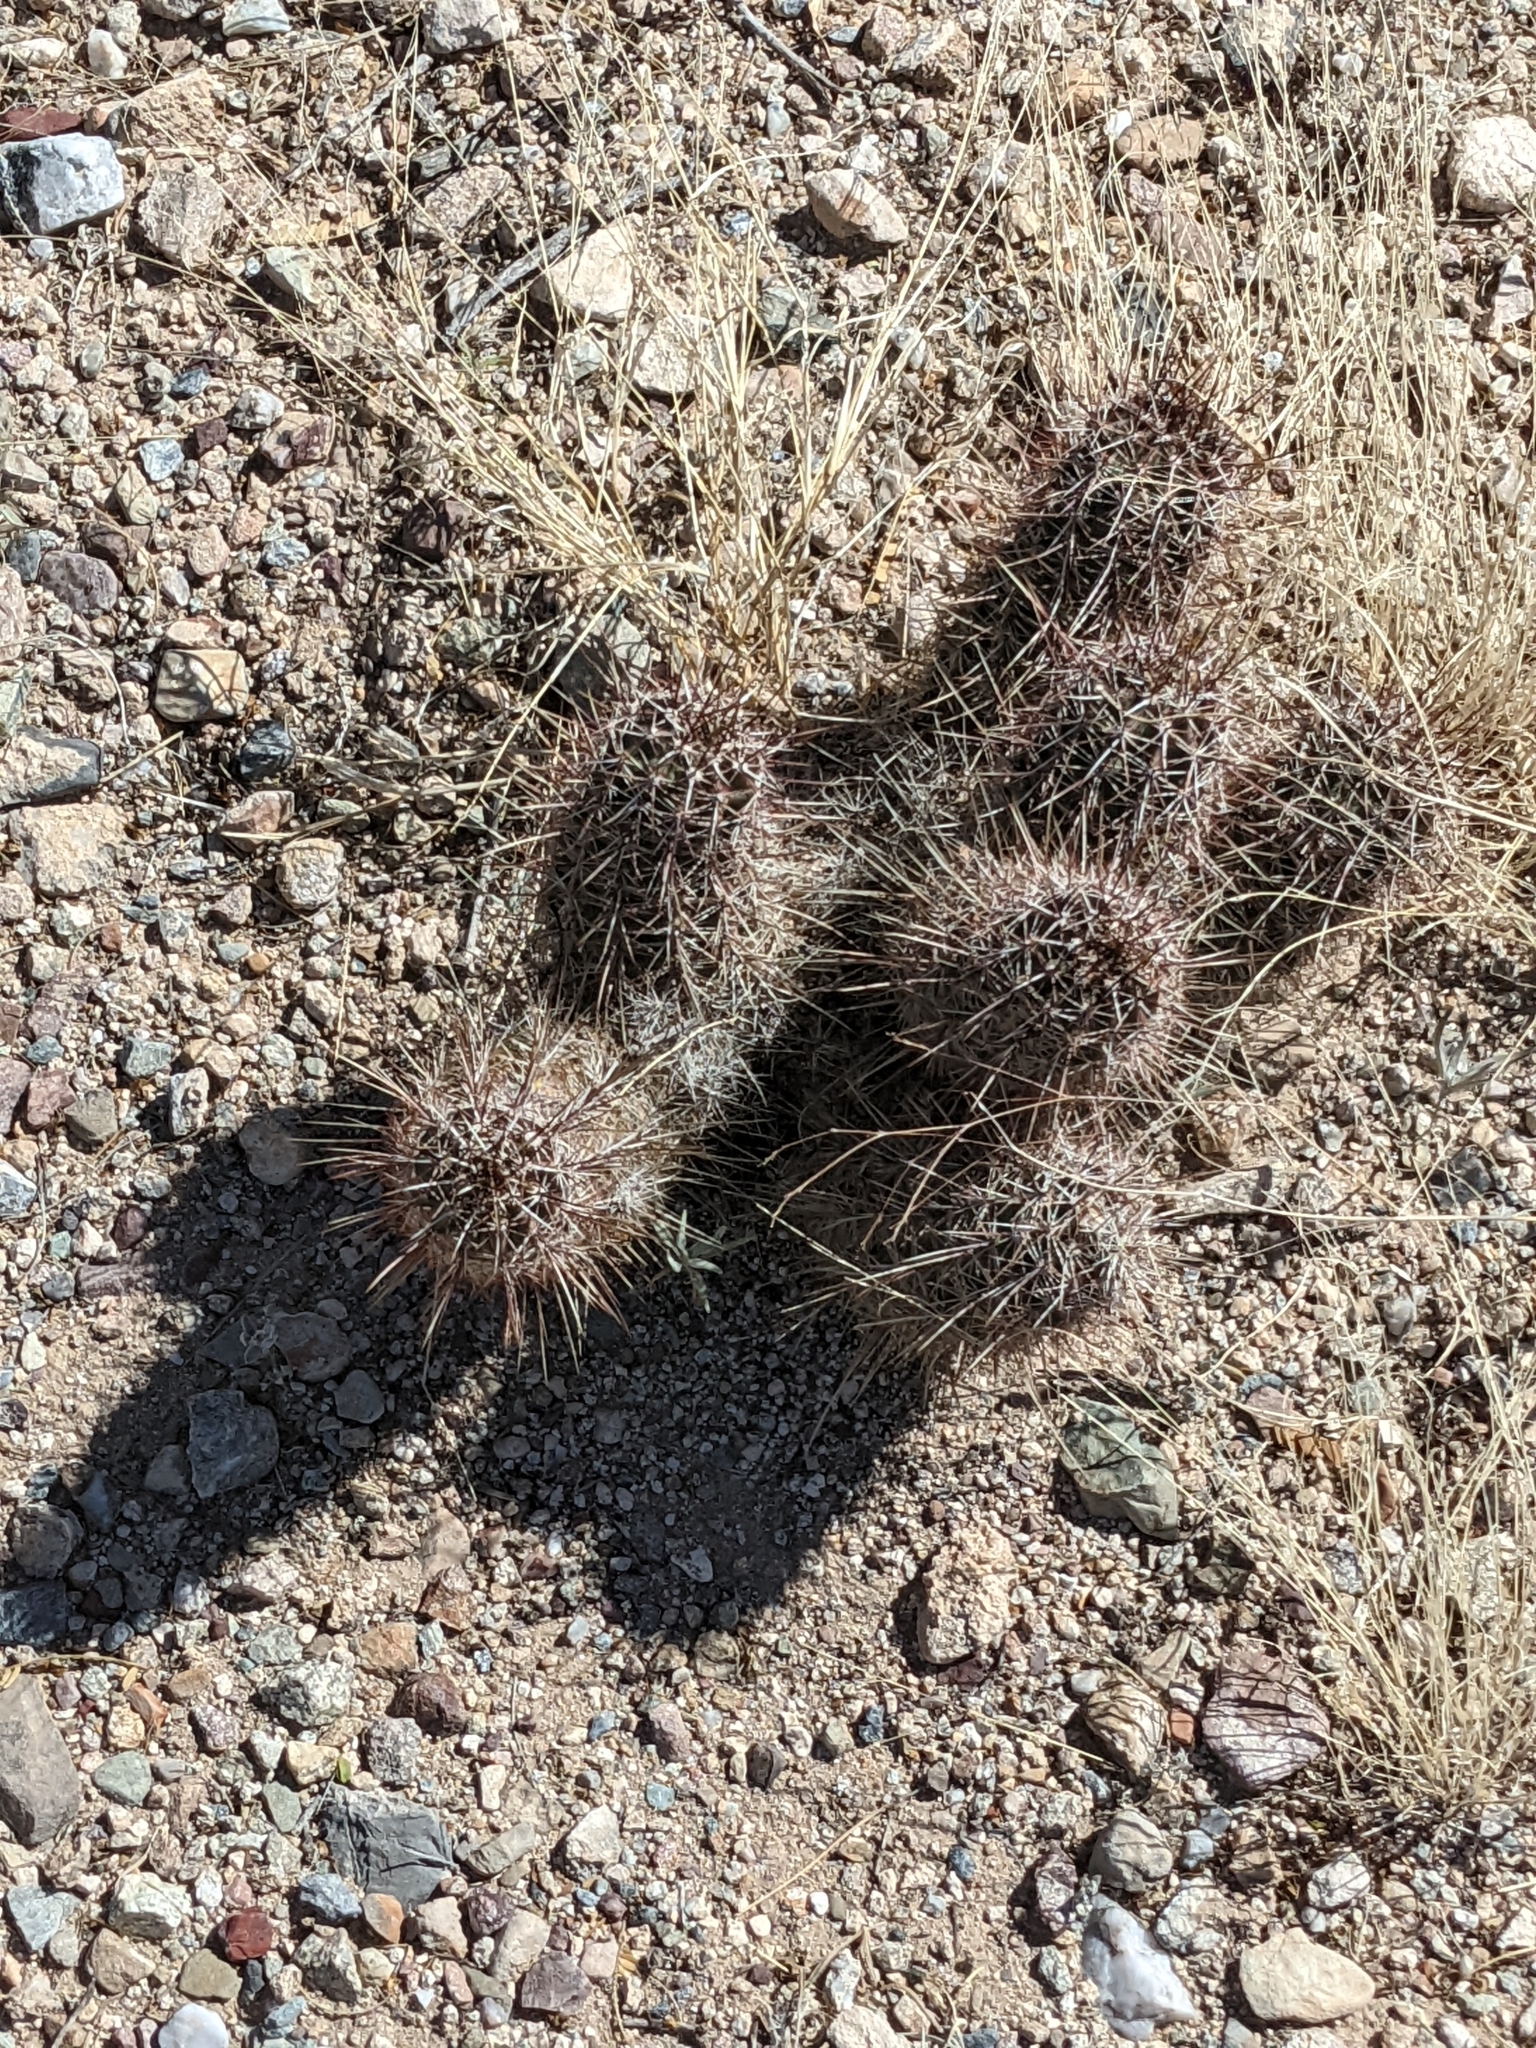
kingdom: Plantae
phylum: Tracheophyta
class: Magnoliopsida
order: Caryophyllales
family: Cactaceae
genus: Echinocereus
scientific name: Echinocereus fasciculatus
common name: Bundle hedgehog
